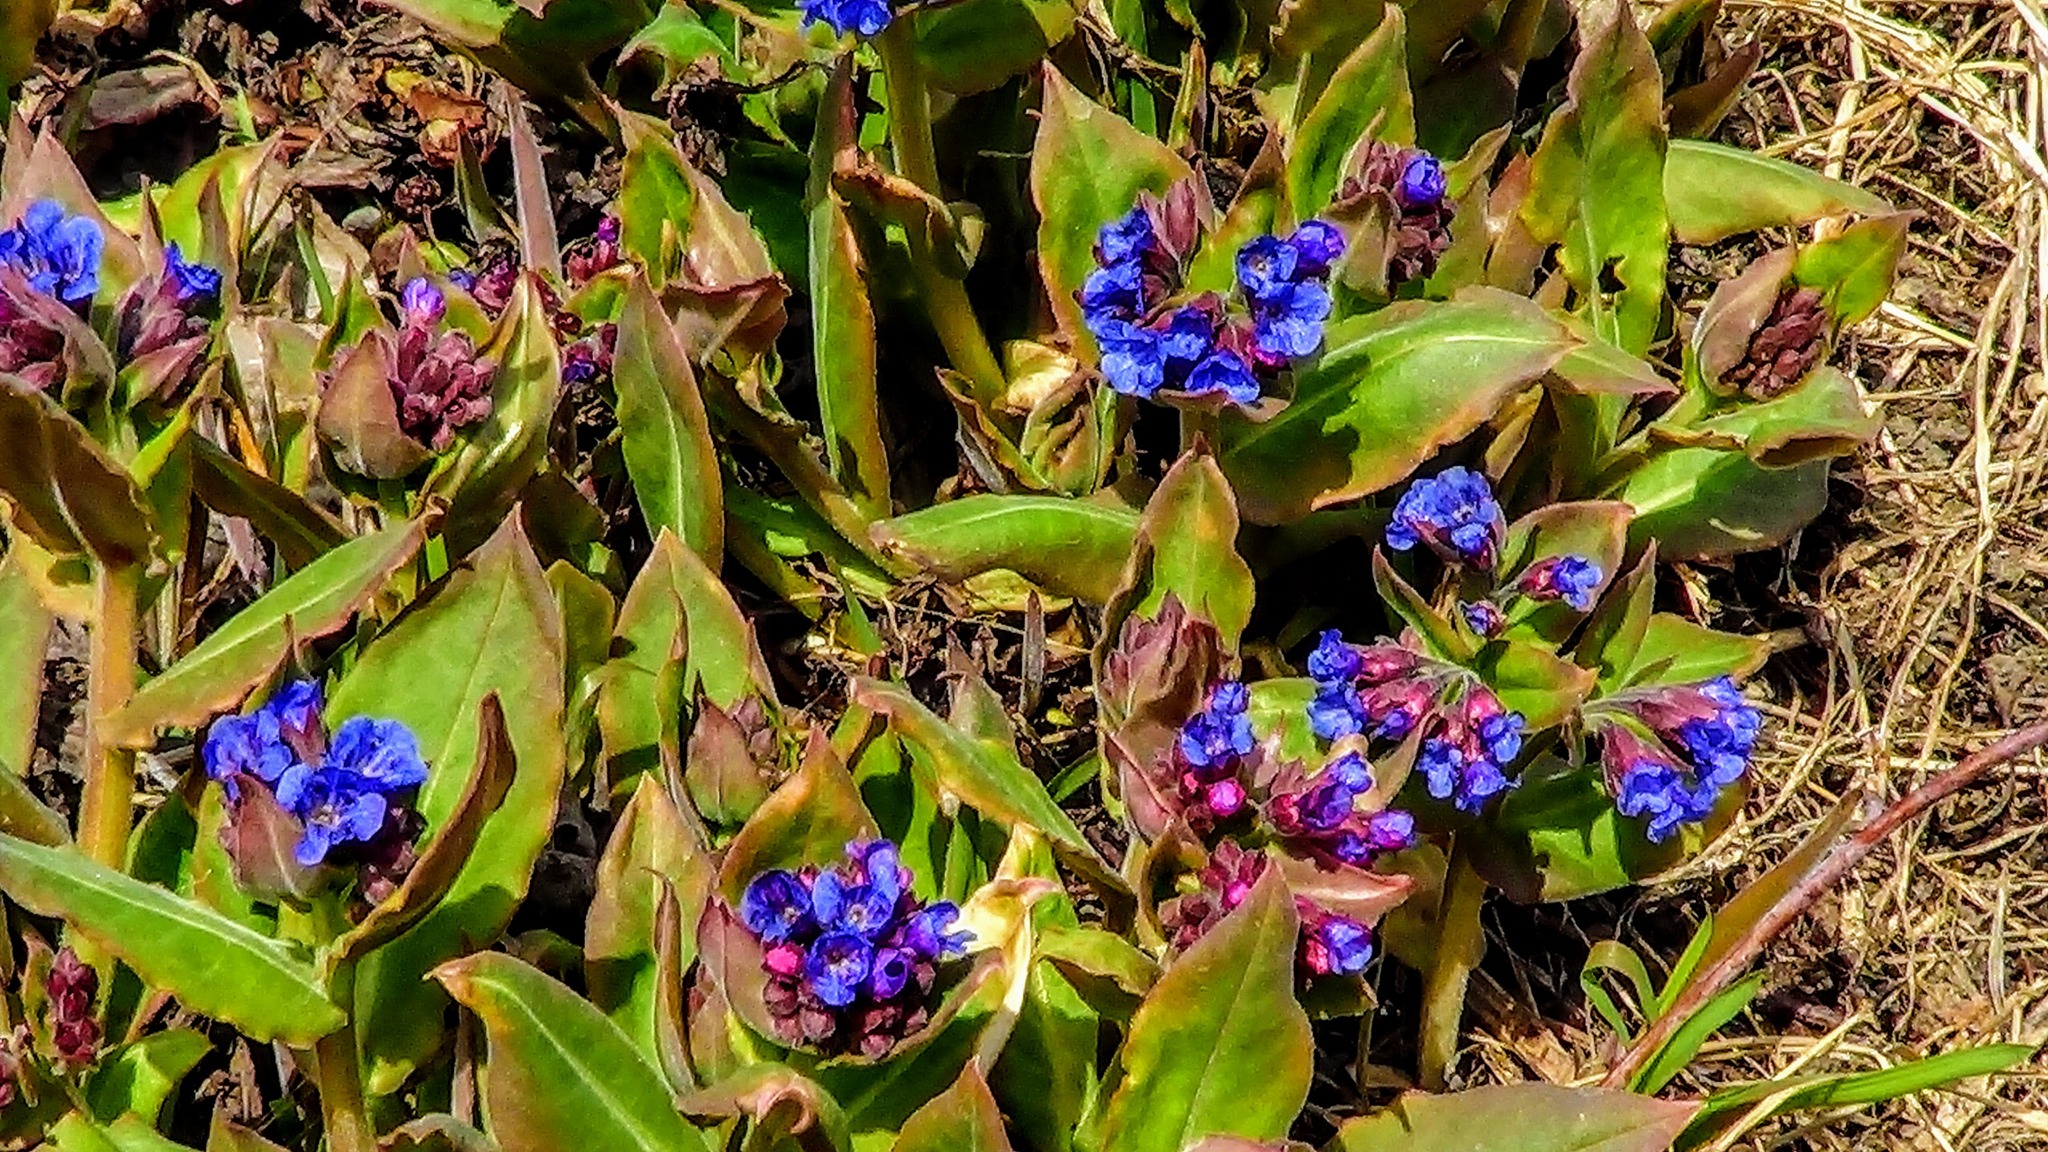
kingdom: Plantae
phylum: Tracheophyta
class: Magnoliopsida
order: Boraginales
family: Boraginaceae
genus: Pulmonaria
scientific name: Pulmonaria mollis
